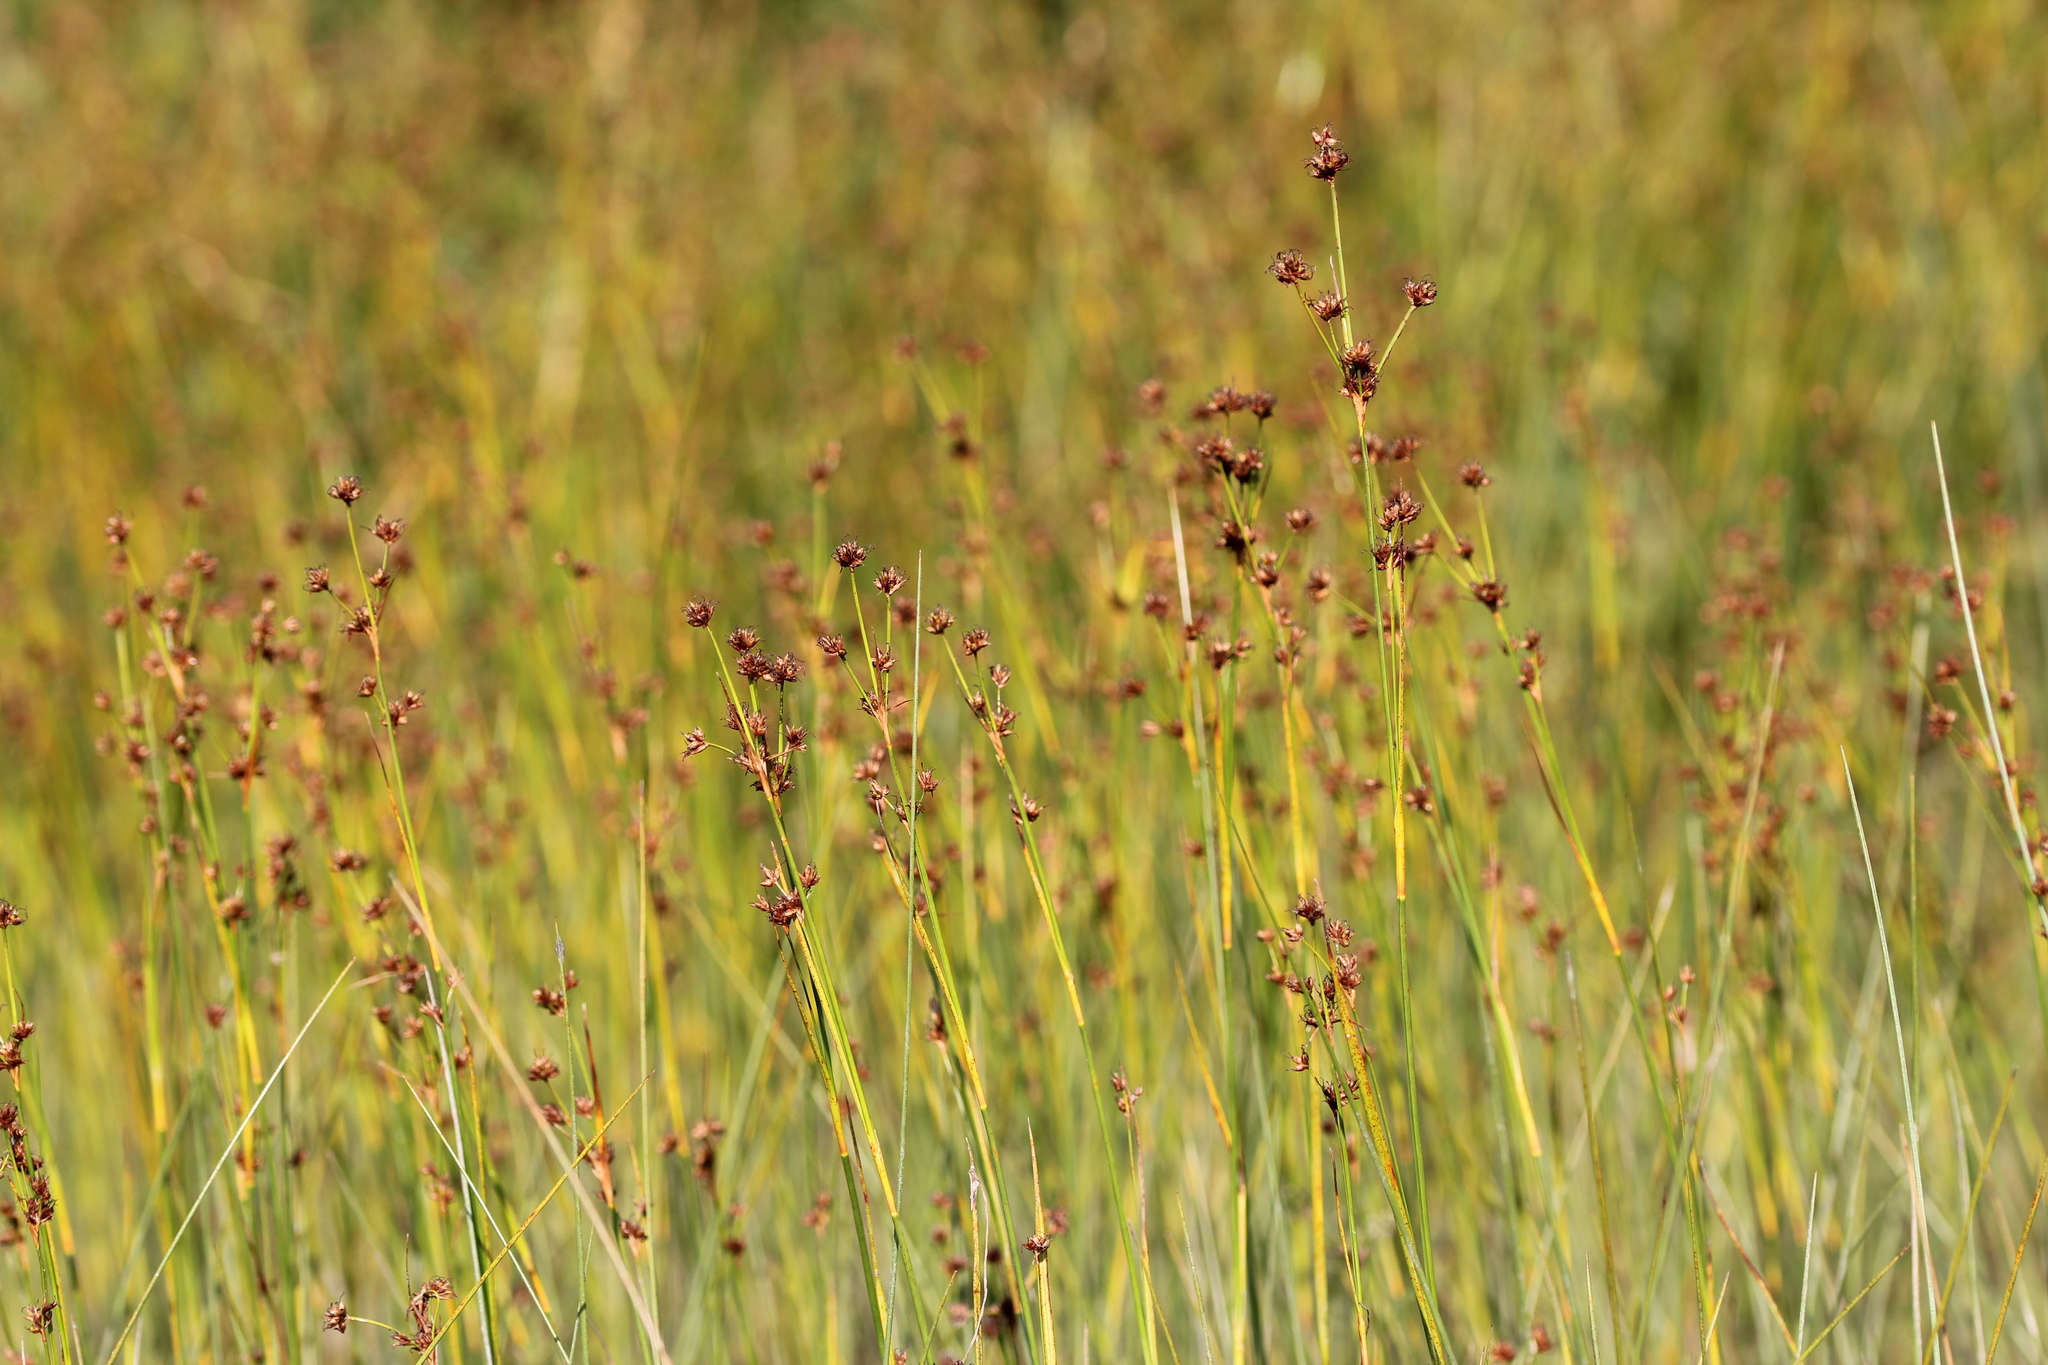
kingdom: Plantae
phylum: Tracheophyta
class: Liliopsida
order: Poales
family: Cyperaceae
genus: Cladium
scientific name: Cladium mariscoides
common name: Smooth sawgrass
